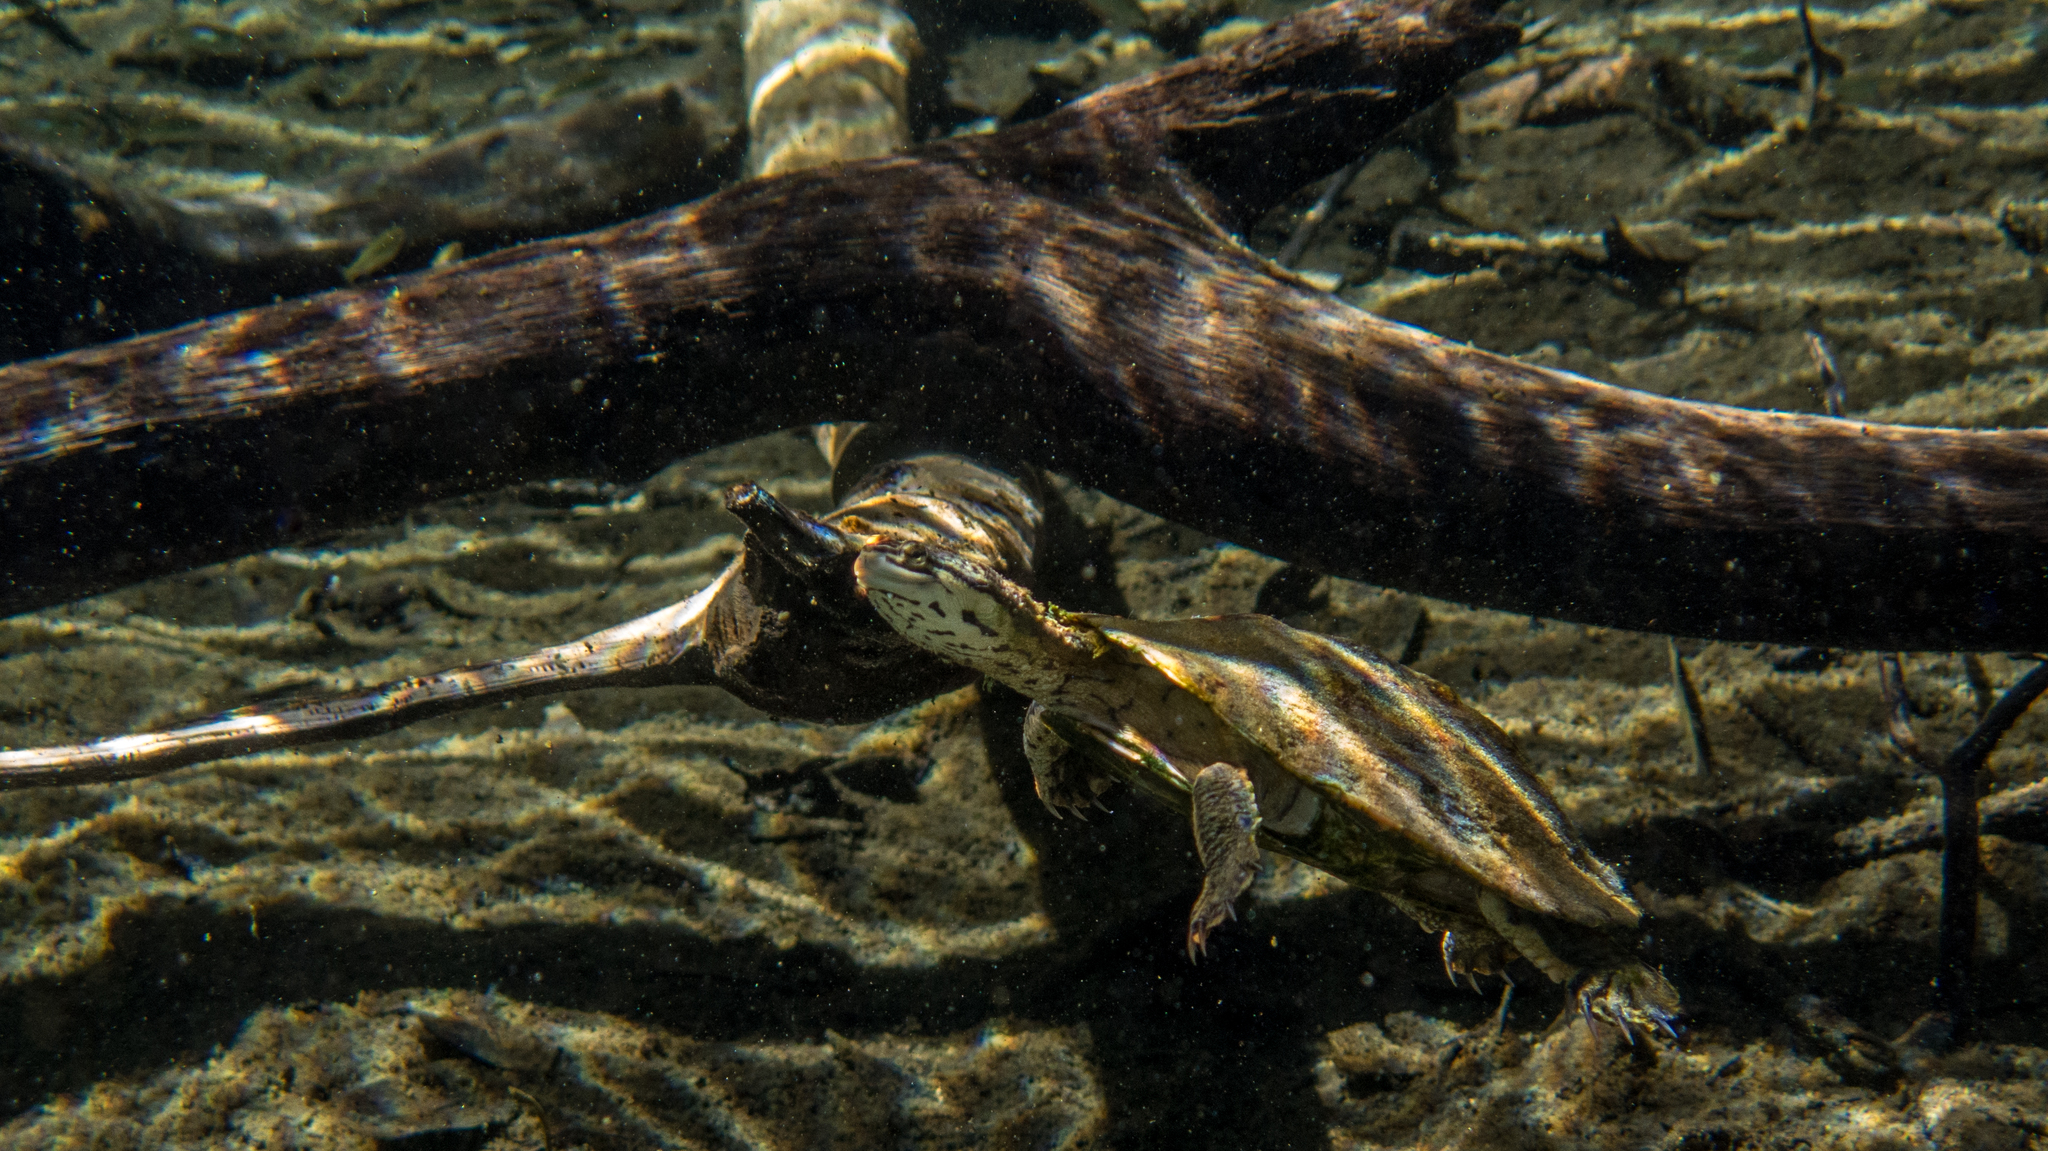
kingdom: Animalia
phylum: Chordata
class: Testudines
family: Chelidae
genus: Phrynops
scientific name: Phrynops geoffroanus
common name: Side-necked turtle of geoffroy
